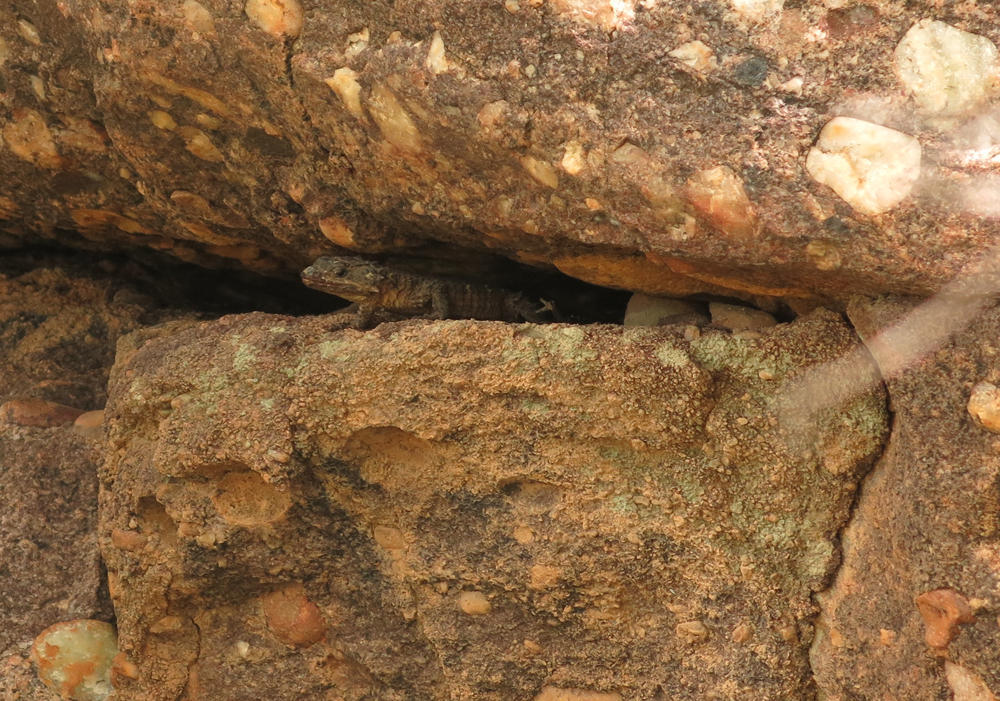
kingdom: Animalia
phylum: Chordata
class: Squamata
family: Cordylidae
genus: Smaug
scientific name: Smaug breyeri
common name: Waterberg dragon lizard
